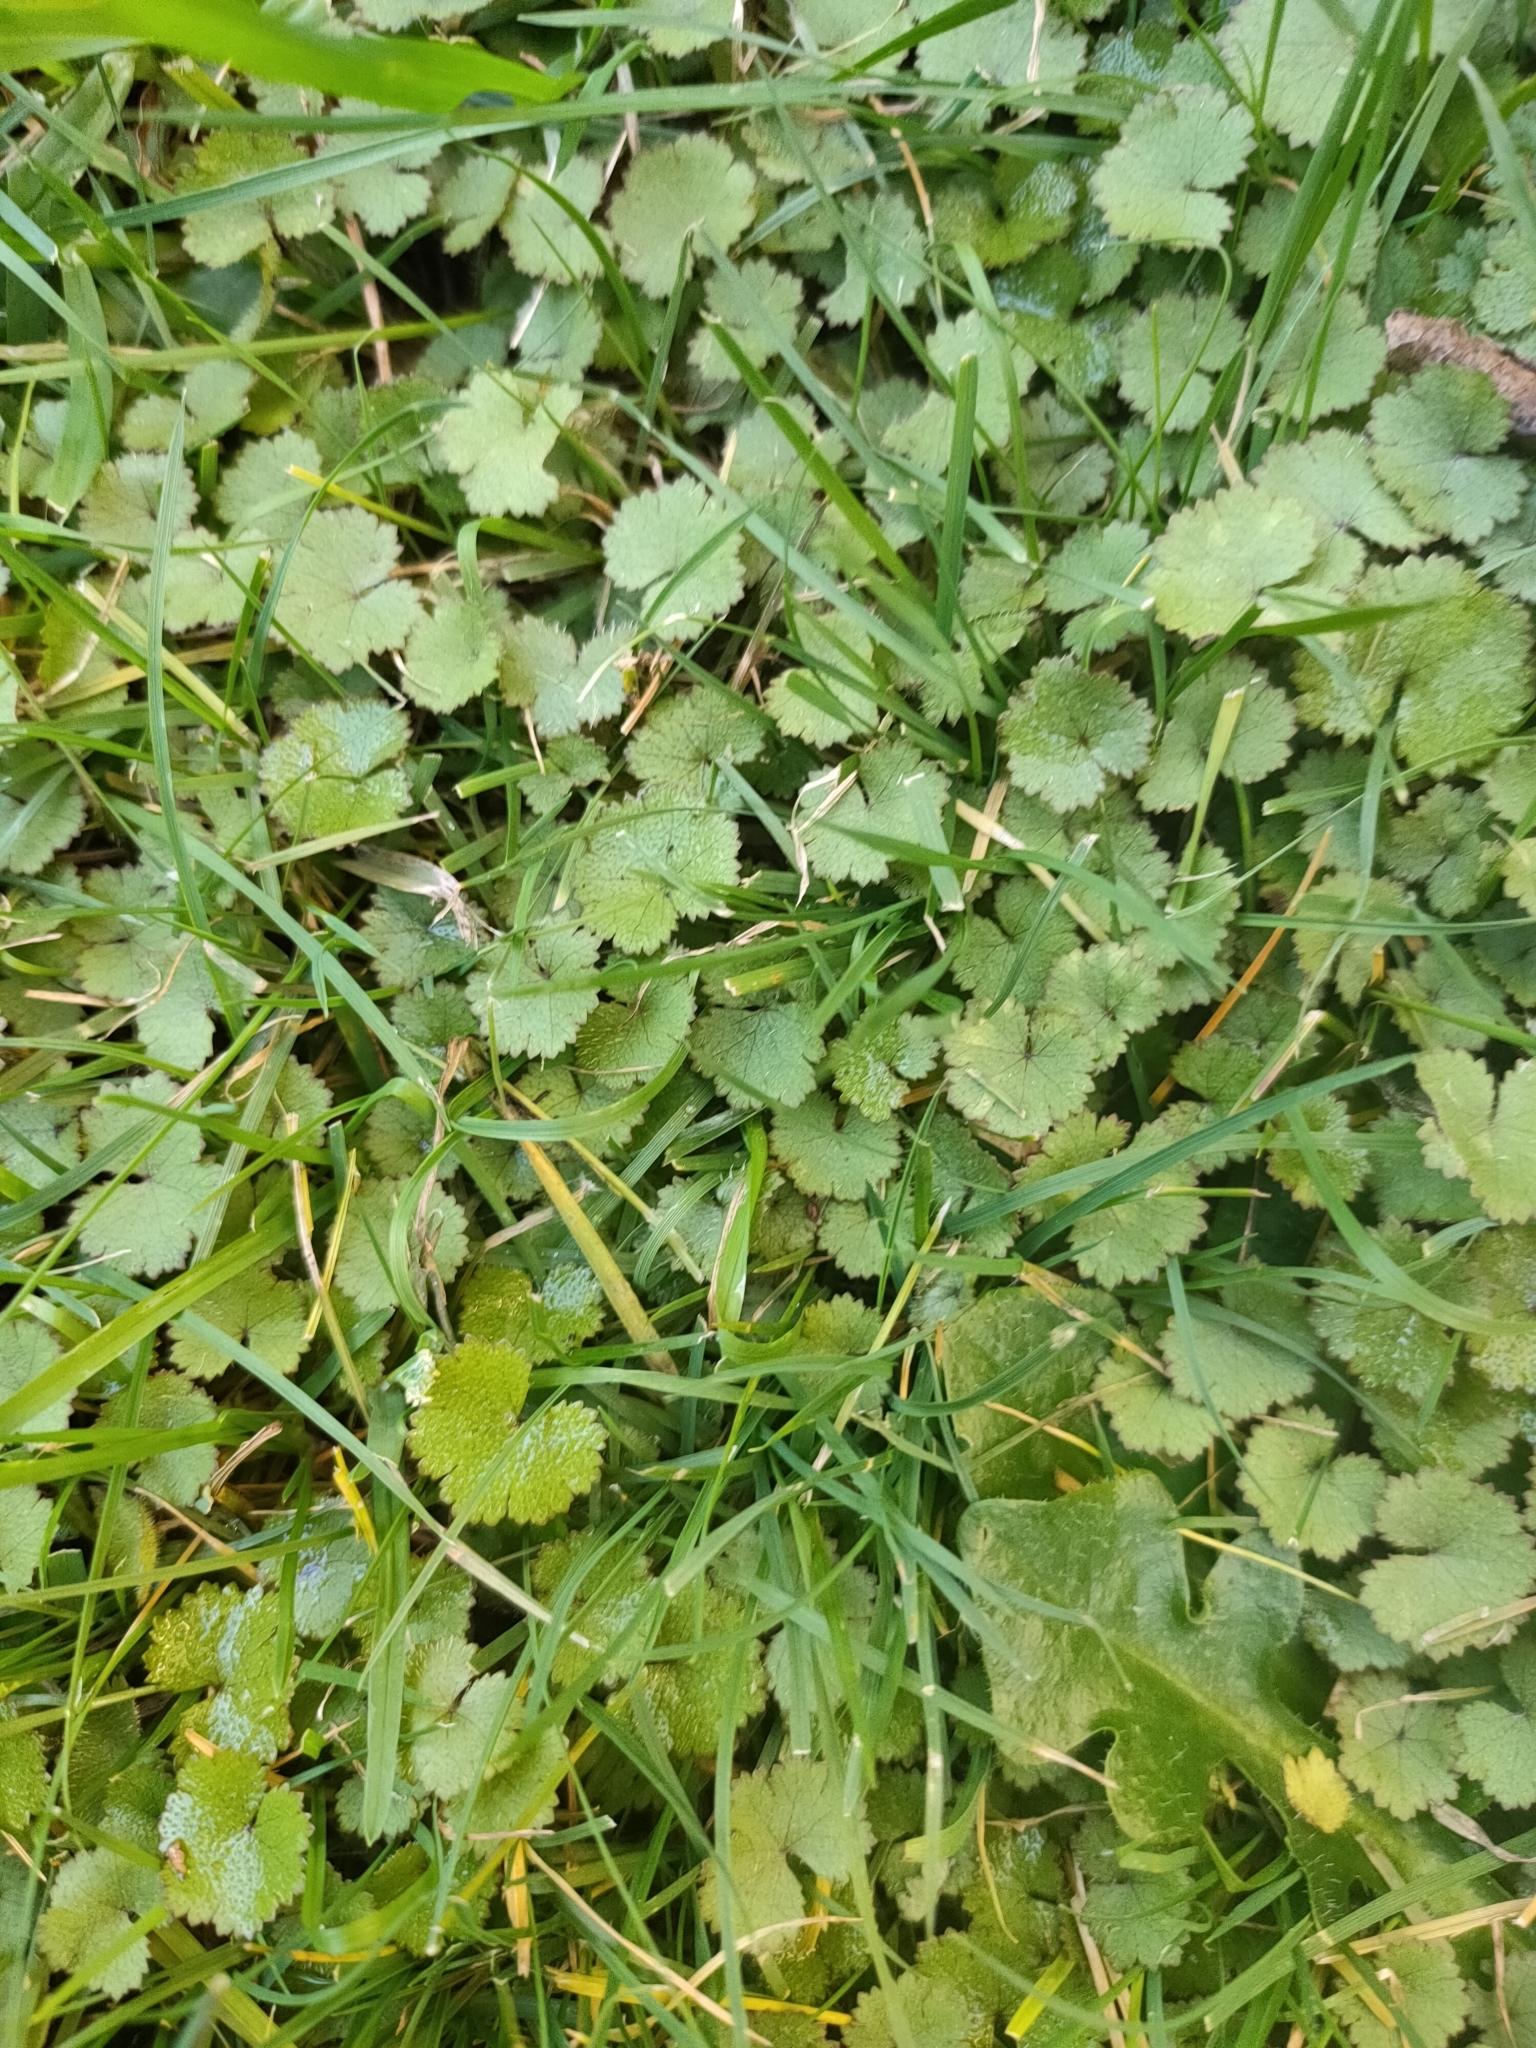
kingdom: Plantae
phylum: Tracheophyta
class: Magnoliopsida
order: Apiales
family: Araliaceae
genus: Hydrocotyle
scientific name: Hydrocotyle moschata
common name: Hairy pennywort
